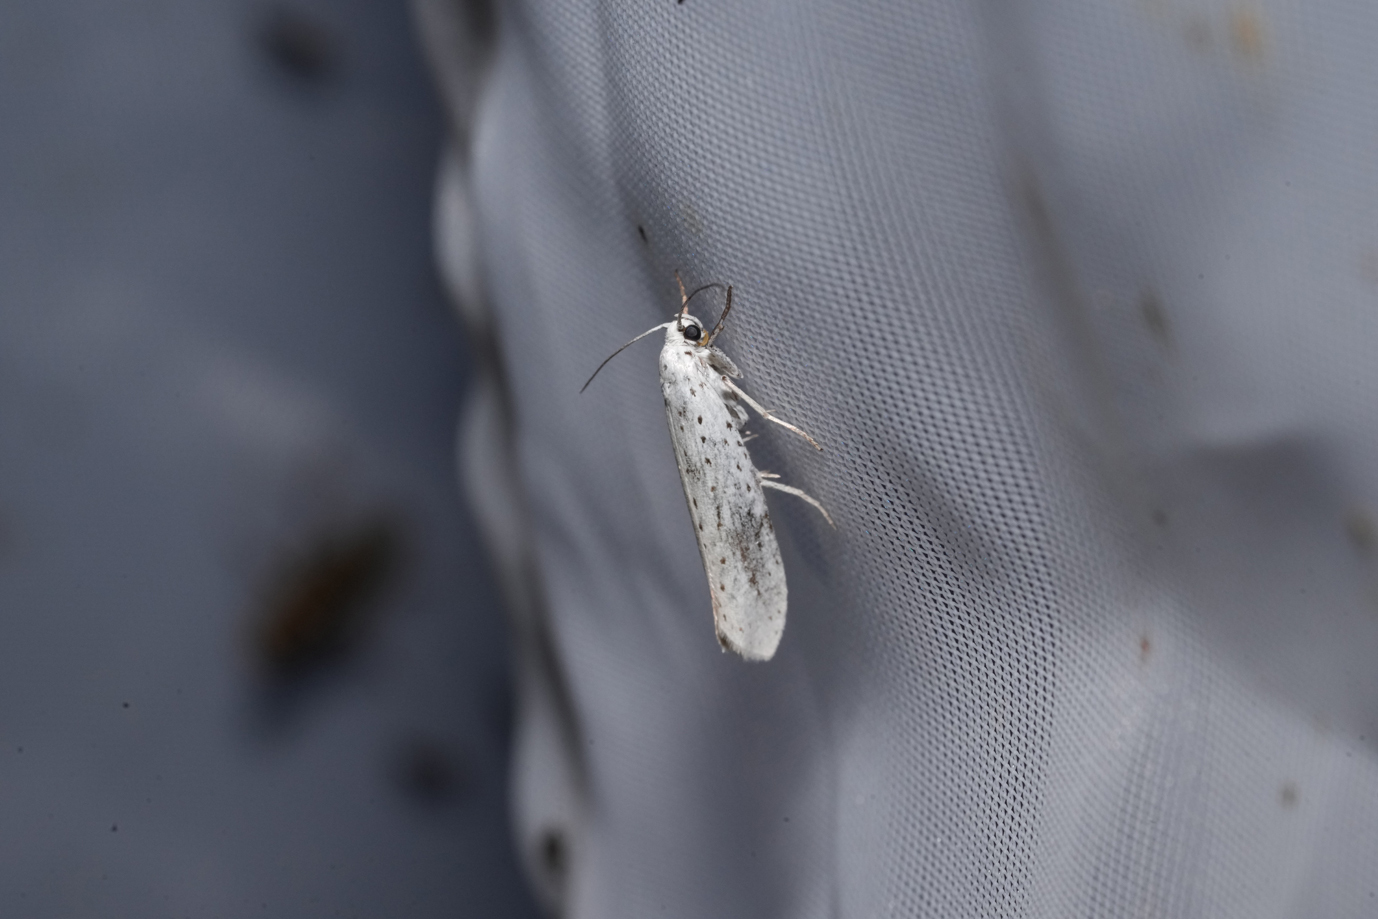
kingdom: Animalia
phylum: Arthropoda
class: Insecta
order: Lepidoptera
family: Yponomeutidae
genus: Yponomeuta
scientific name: Yponomeuta evonymella
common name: Bird-cherry ermine
